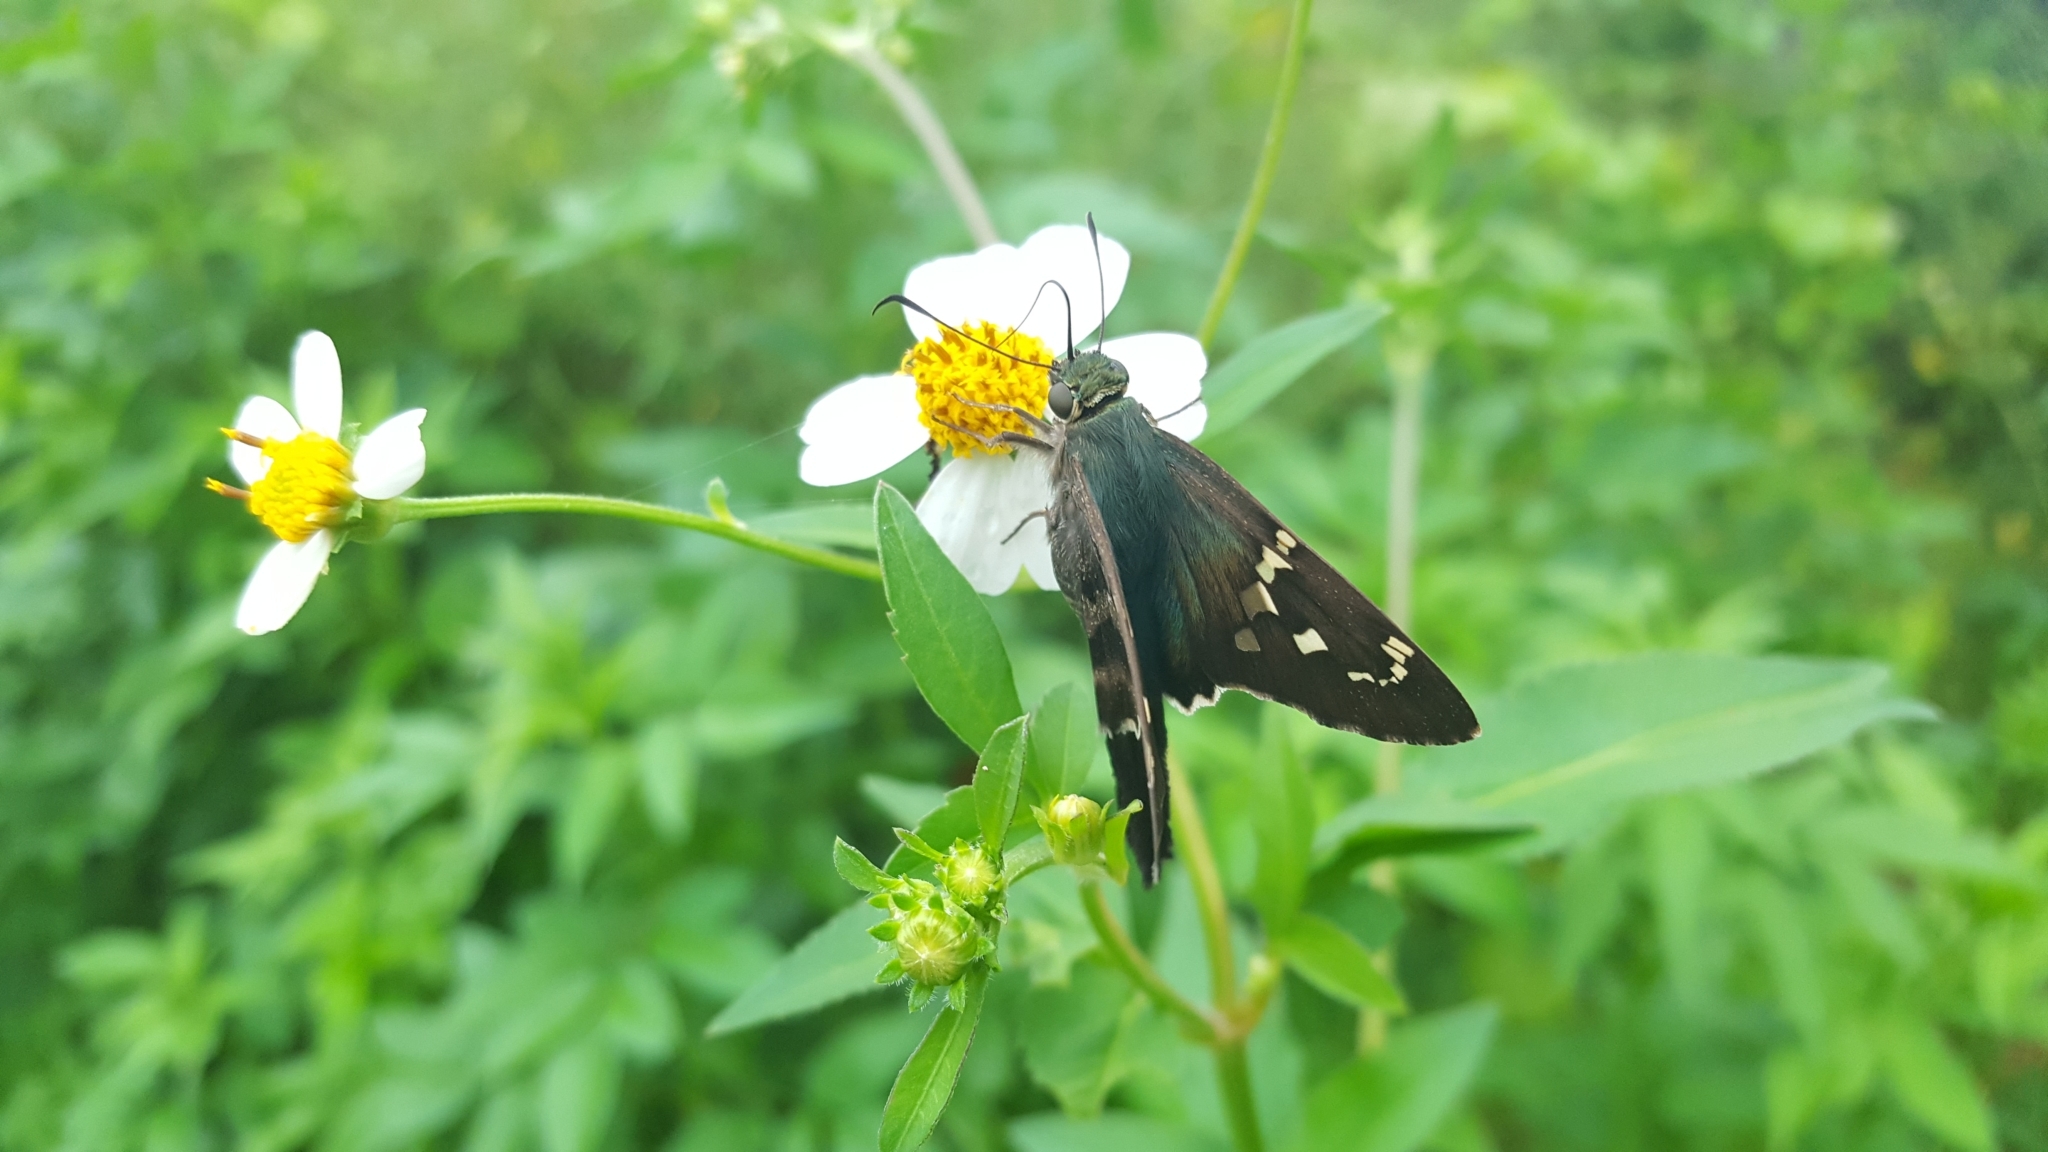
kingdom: Animalia
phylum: Arthropoda
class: Insecta
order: Lepidoptera
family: Hesperiidae
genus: Urbanus
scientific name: Urbanus proteus
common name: Long-tailed skipper
